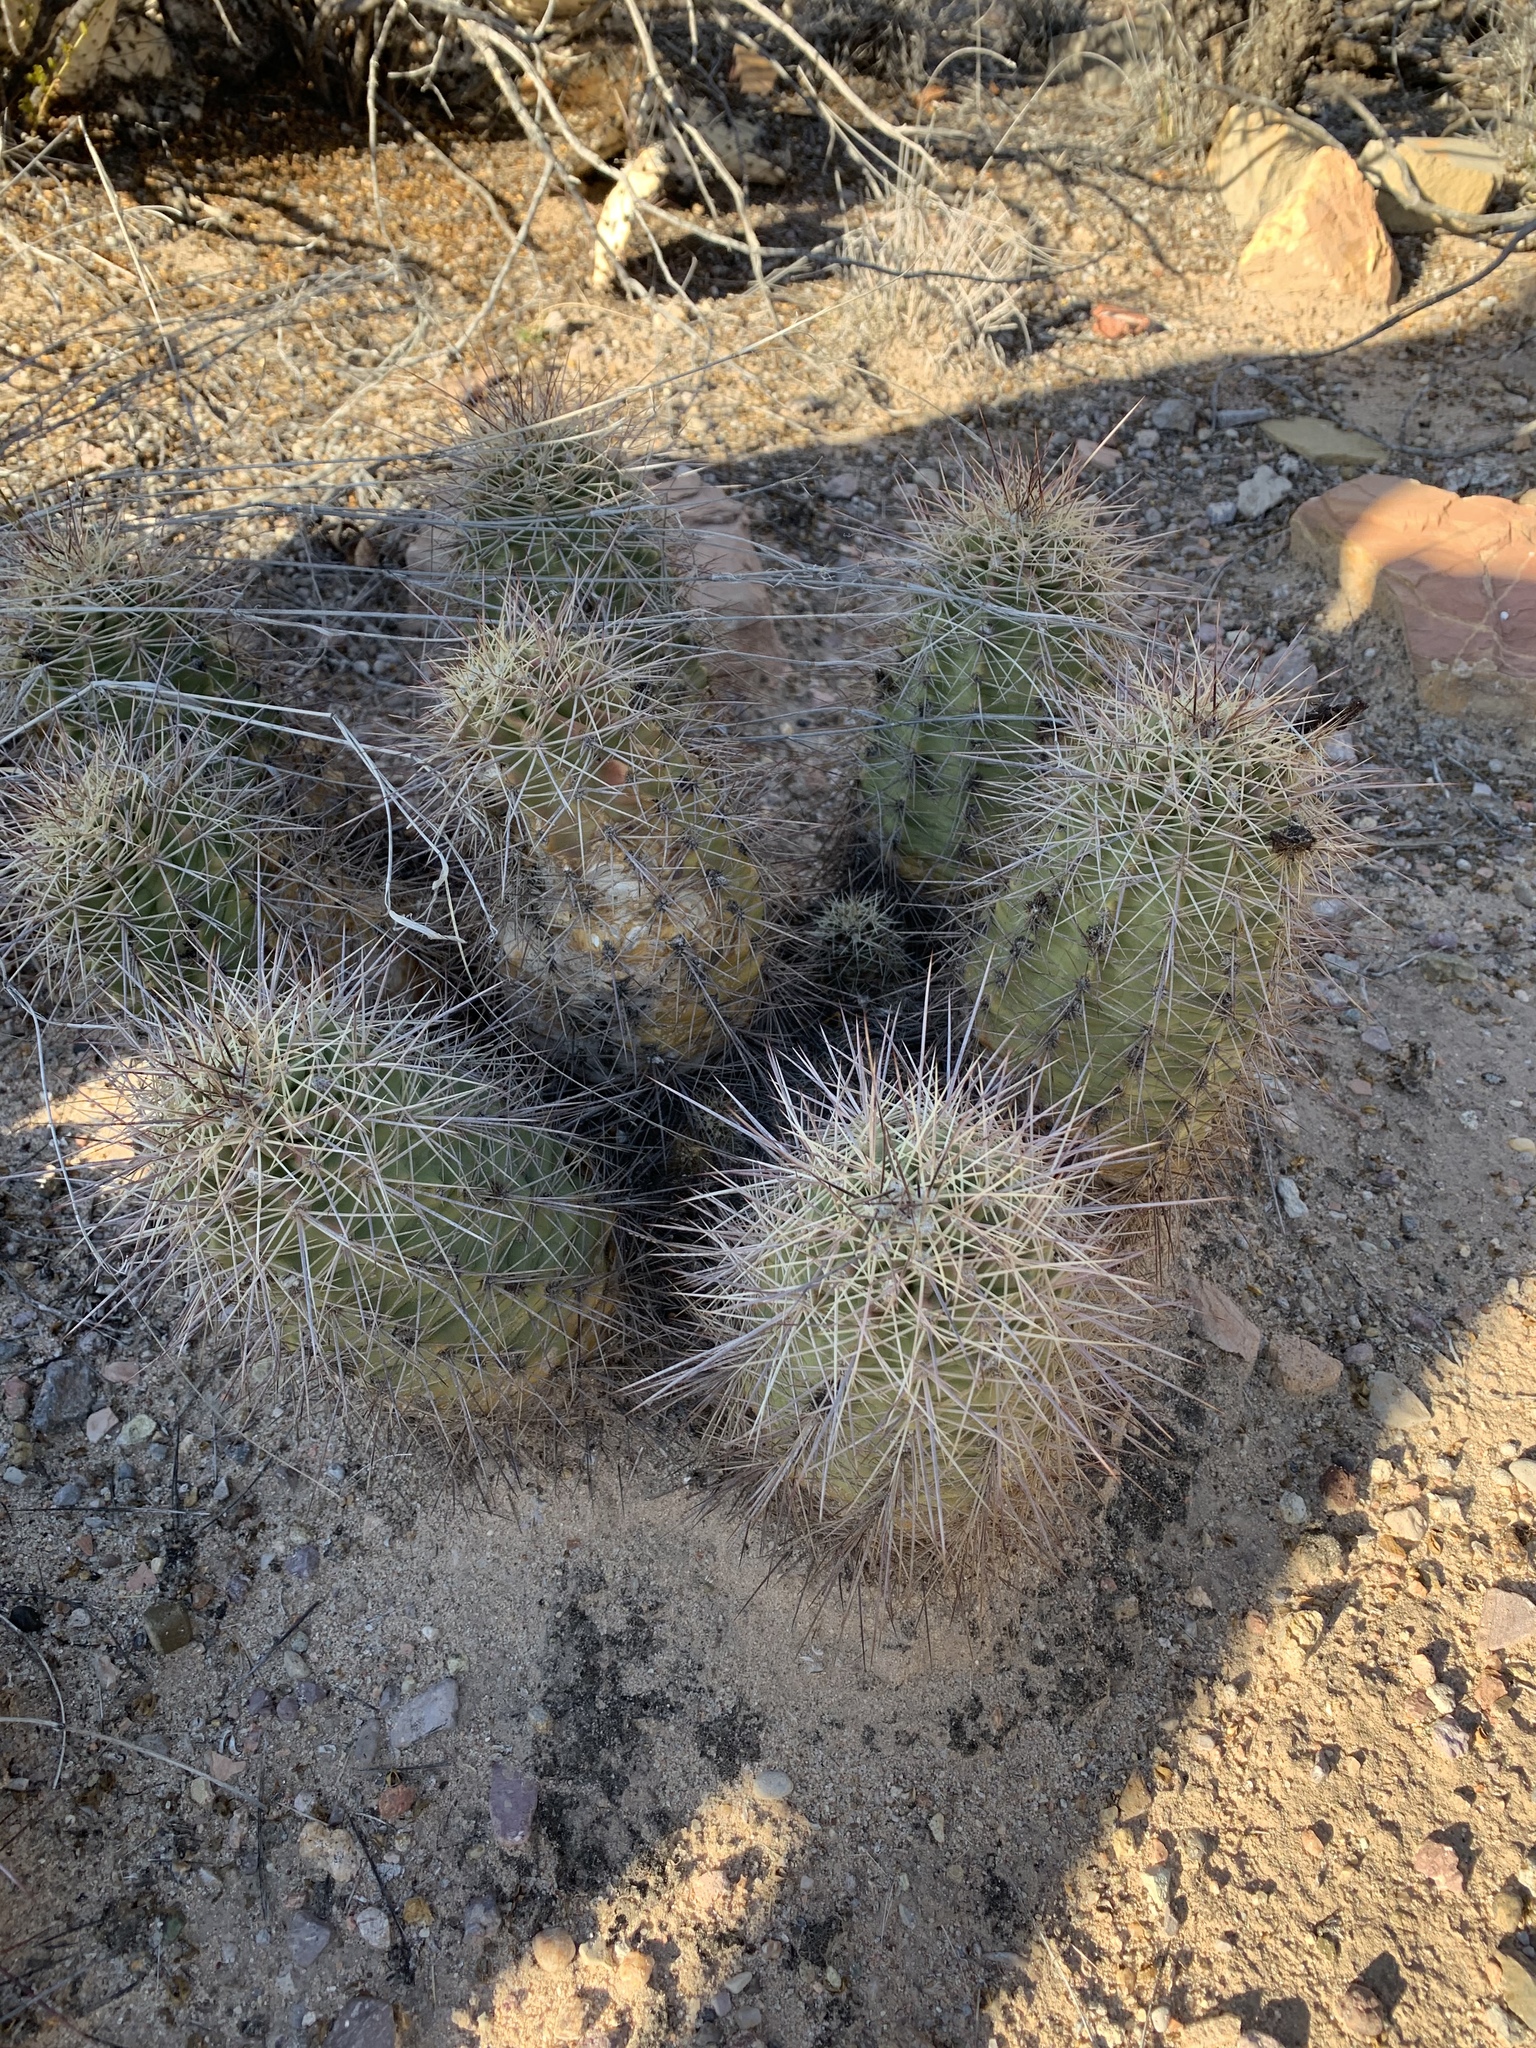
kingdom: Plantae
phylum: Tracheophyta
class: Magnoliopsida
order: Caryophyllales
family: Cactaceae
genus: Echinocereus
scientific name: Echinocereus coccineus
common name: Scarlet hedgehog cactus
